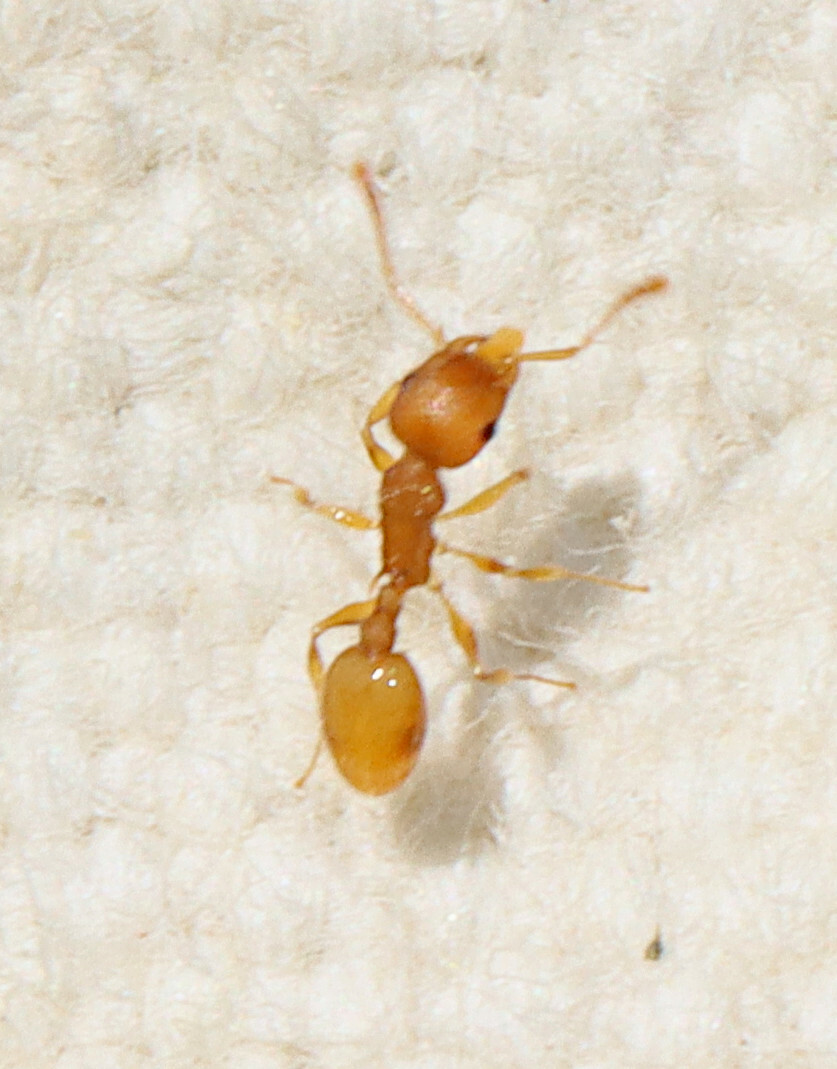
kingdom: Animalia
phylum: Arthropoda
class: Insecta
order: Hymenoptera
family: Formicidae
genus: Temnothorax
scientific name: Temnothorax curvispinosus
